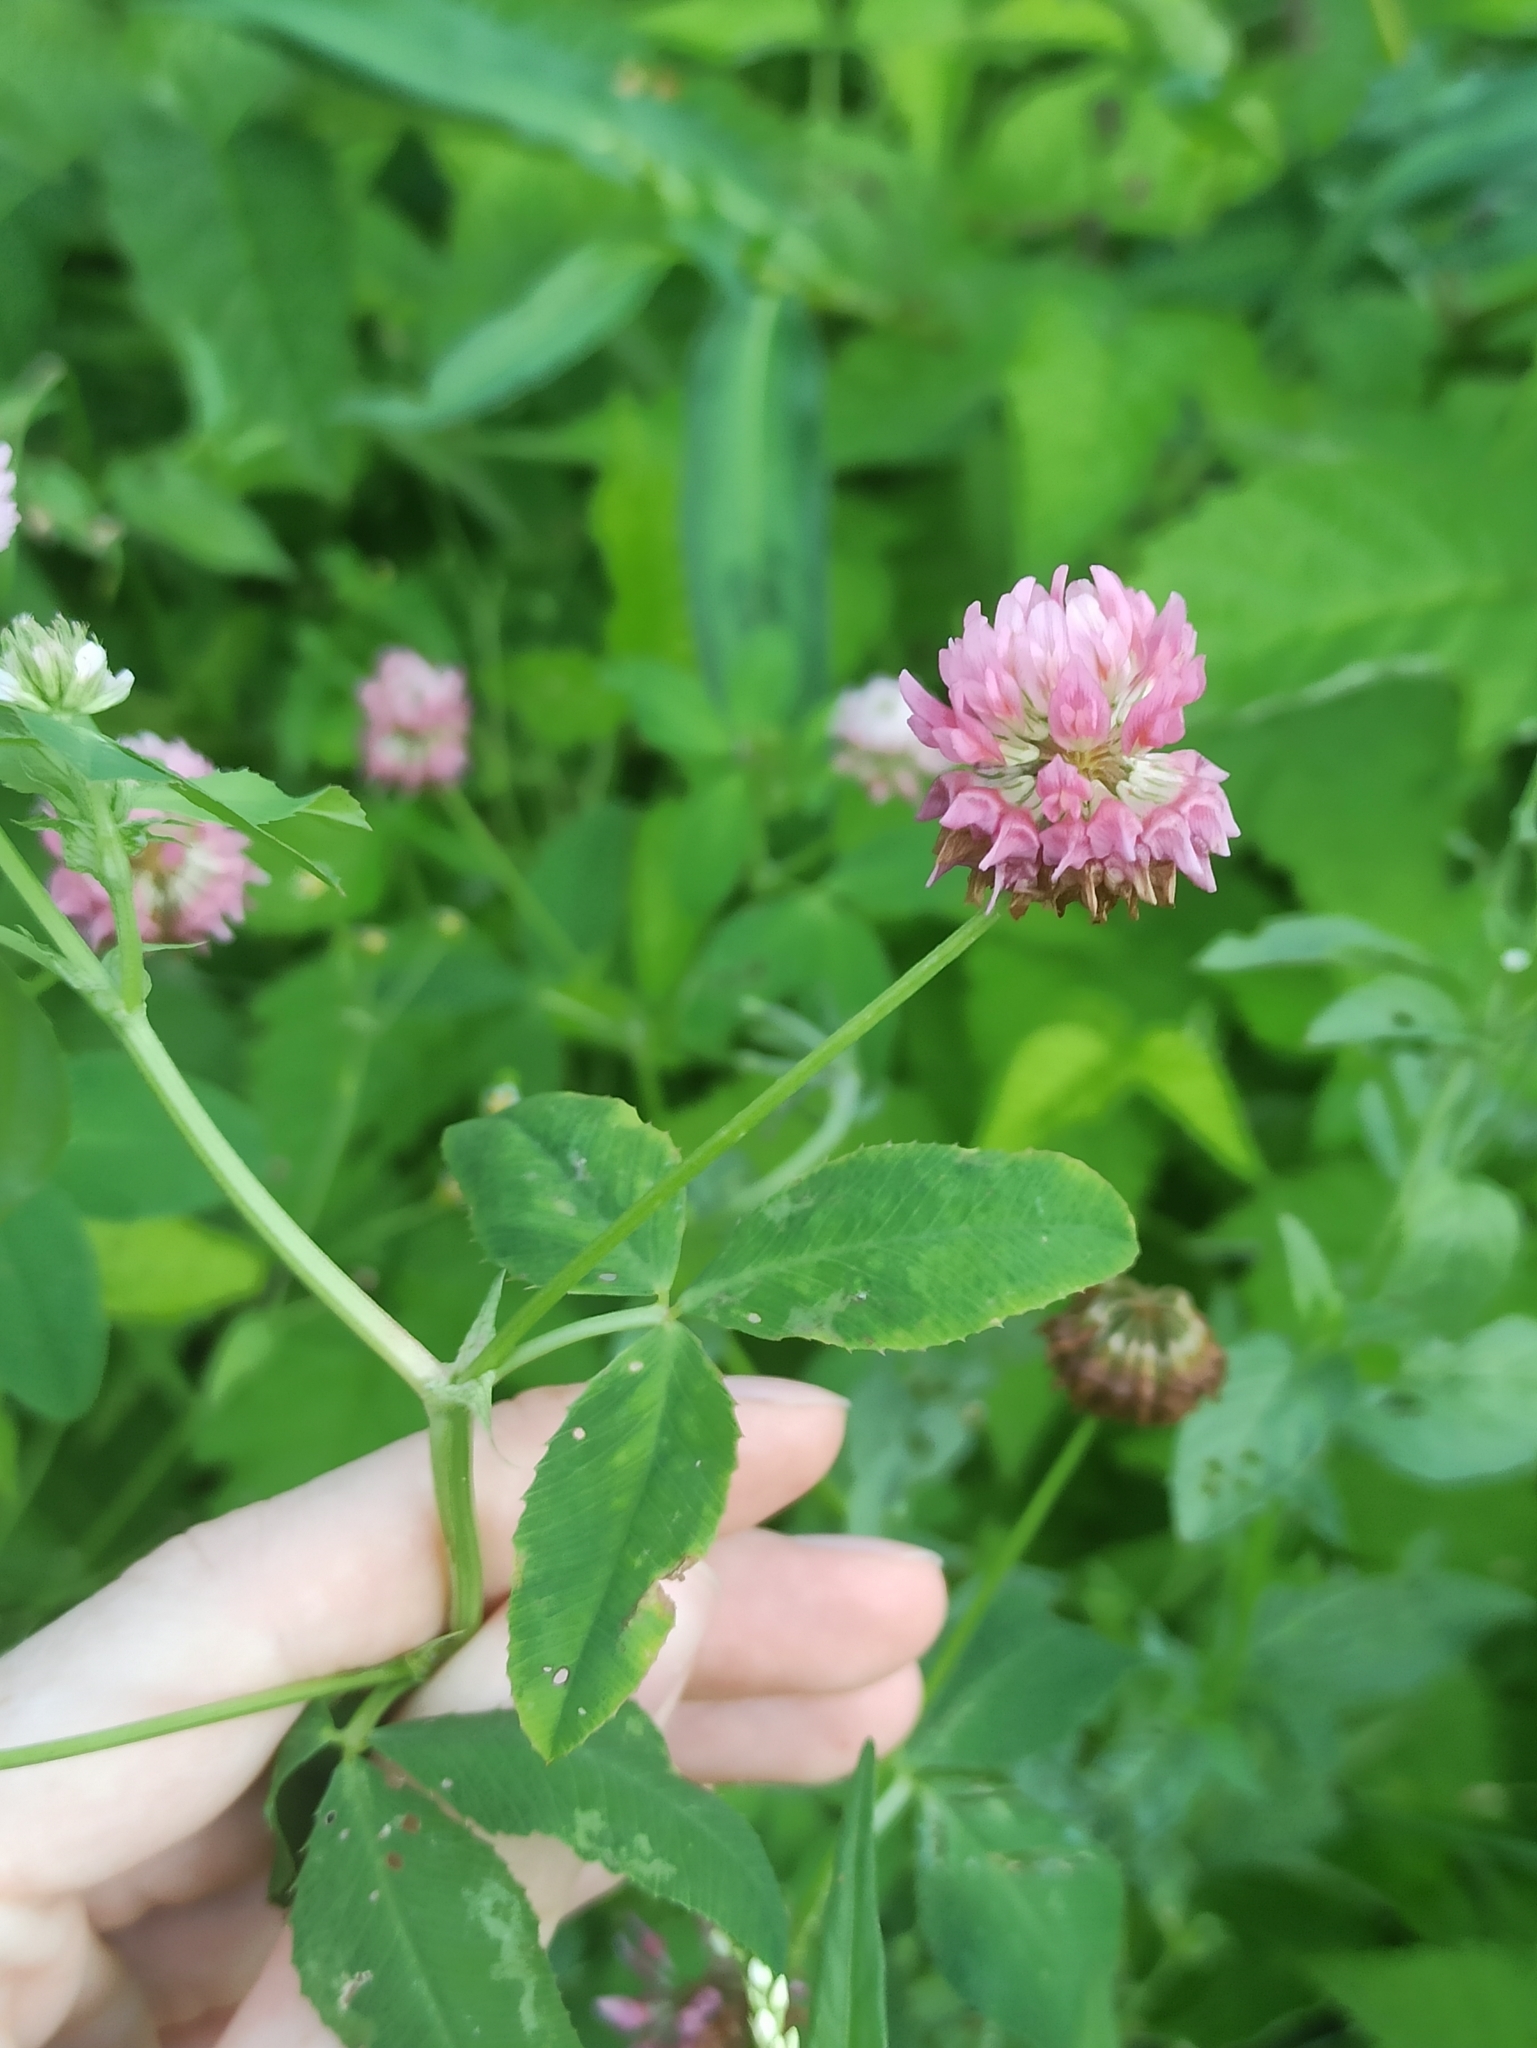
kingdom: Plantae
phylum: Tracheophyta
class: Magnoliopsida
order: Fabales
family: Fabaceae
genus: Trifolium
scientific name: Trifolium hybridum
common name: Alsike clover
